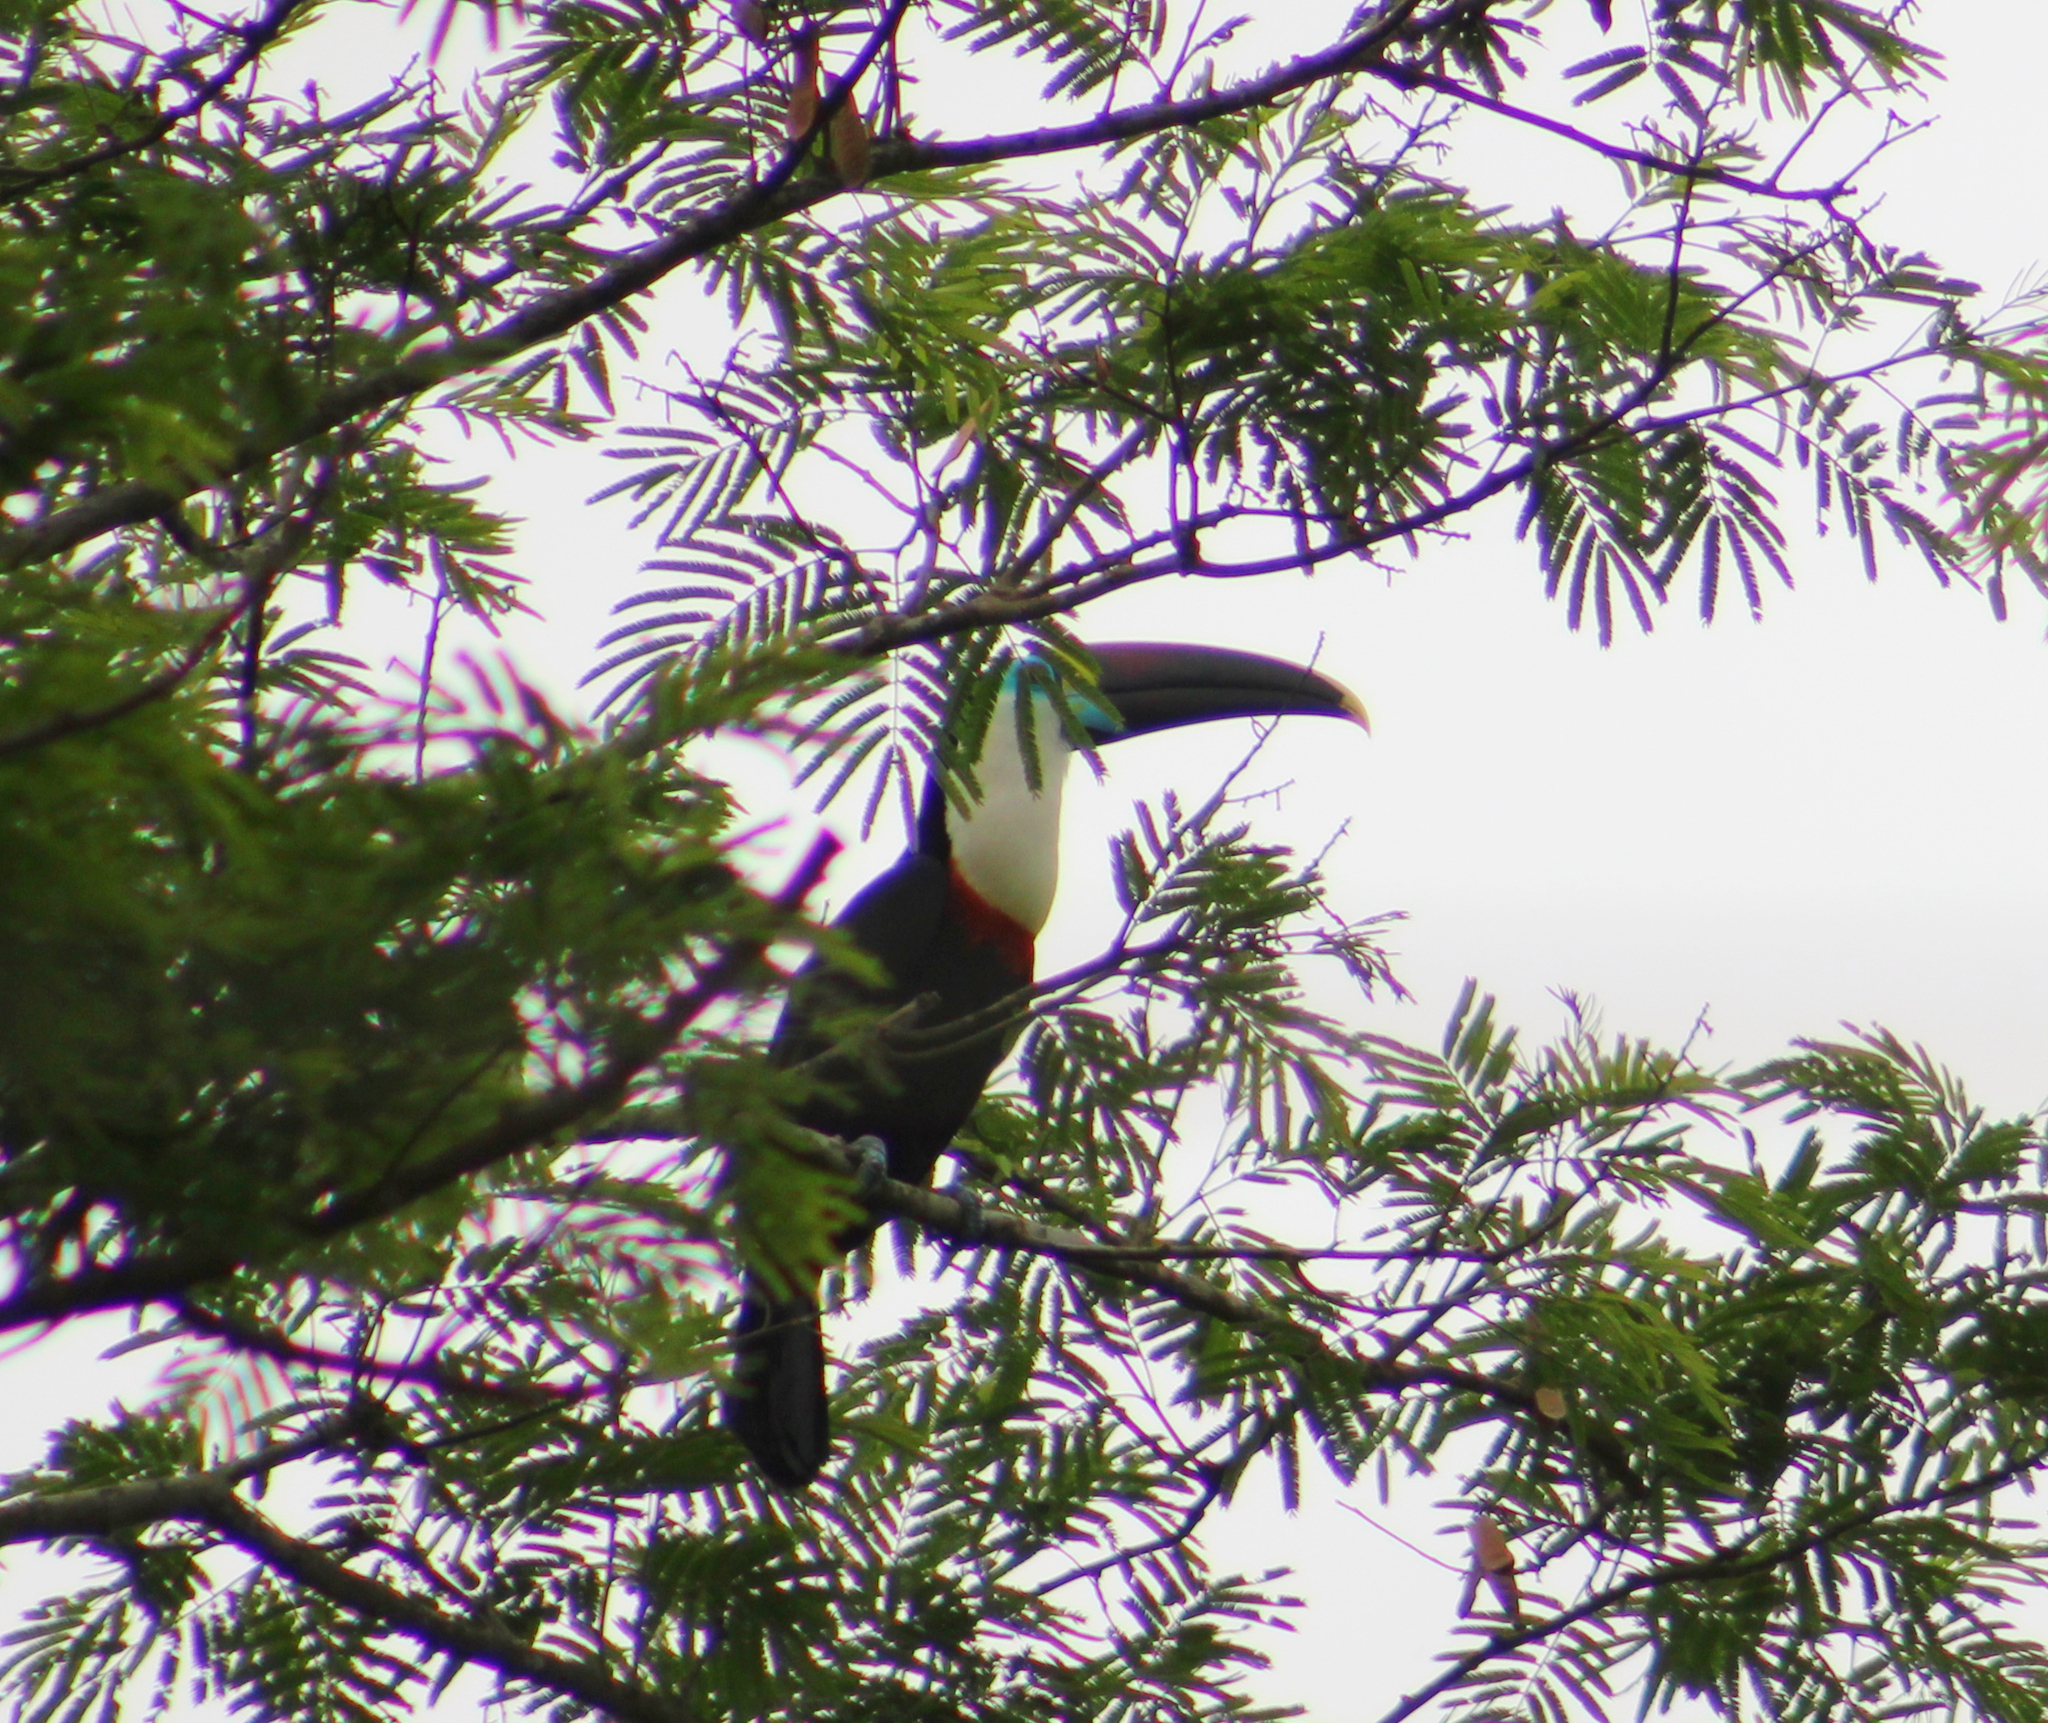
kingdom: Animalia
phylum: Chordata
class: Aves
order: Piciformes
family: Ramphastidae
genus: Ramphastos
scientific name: Ramphastos tucanus
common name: White-throated toucan
